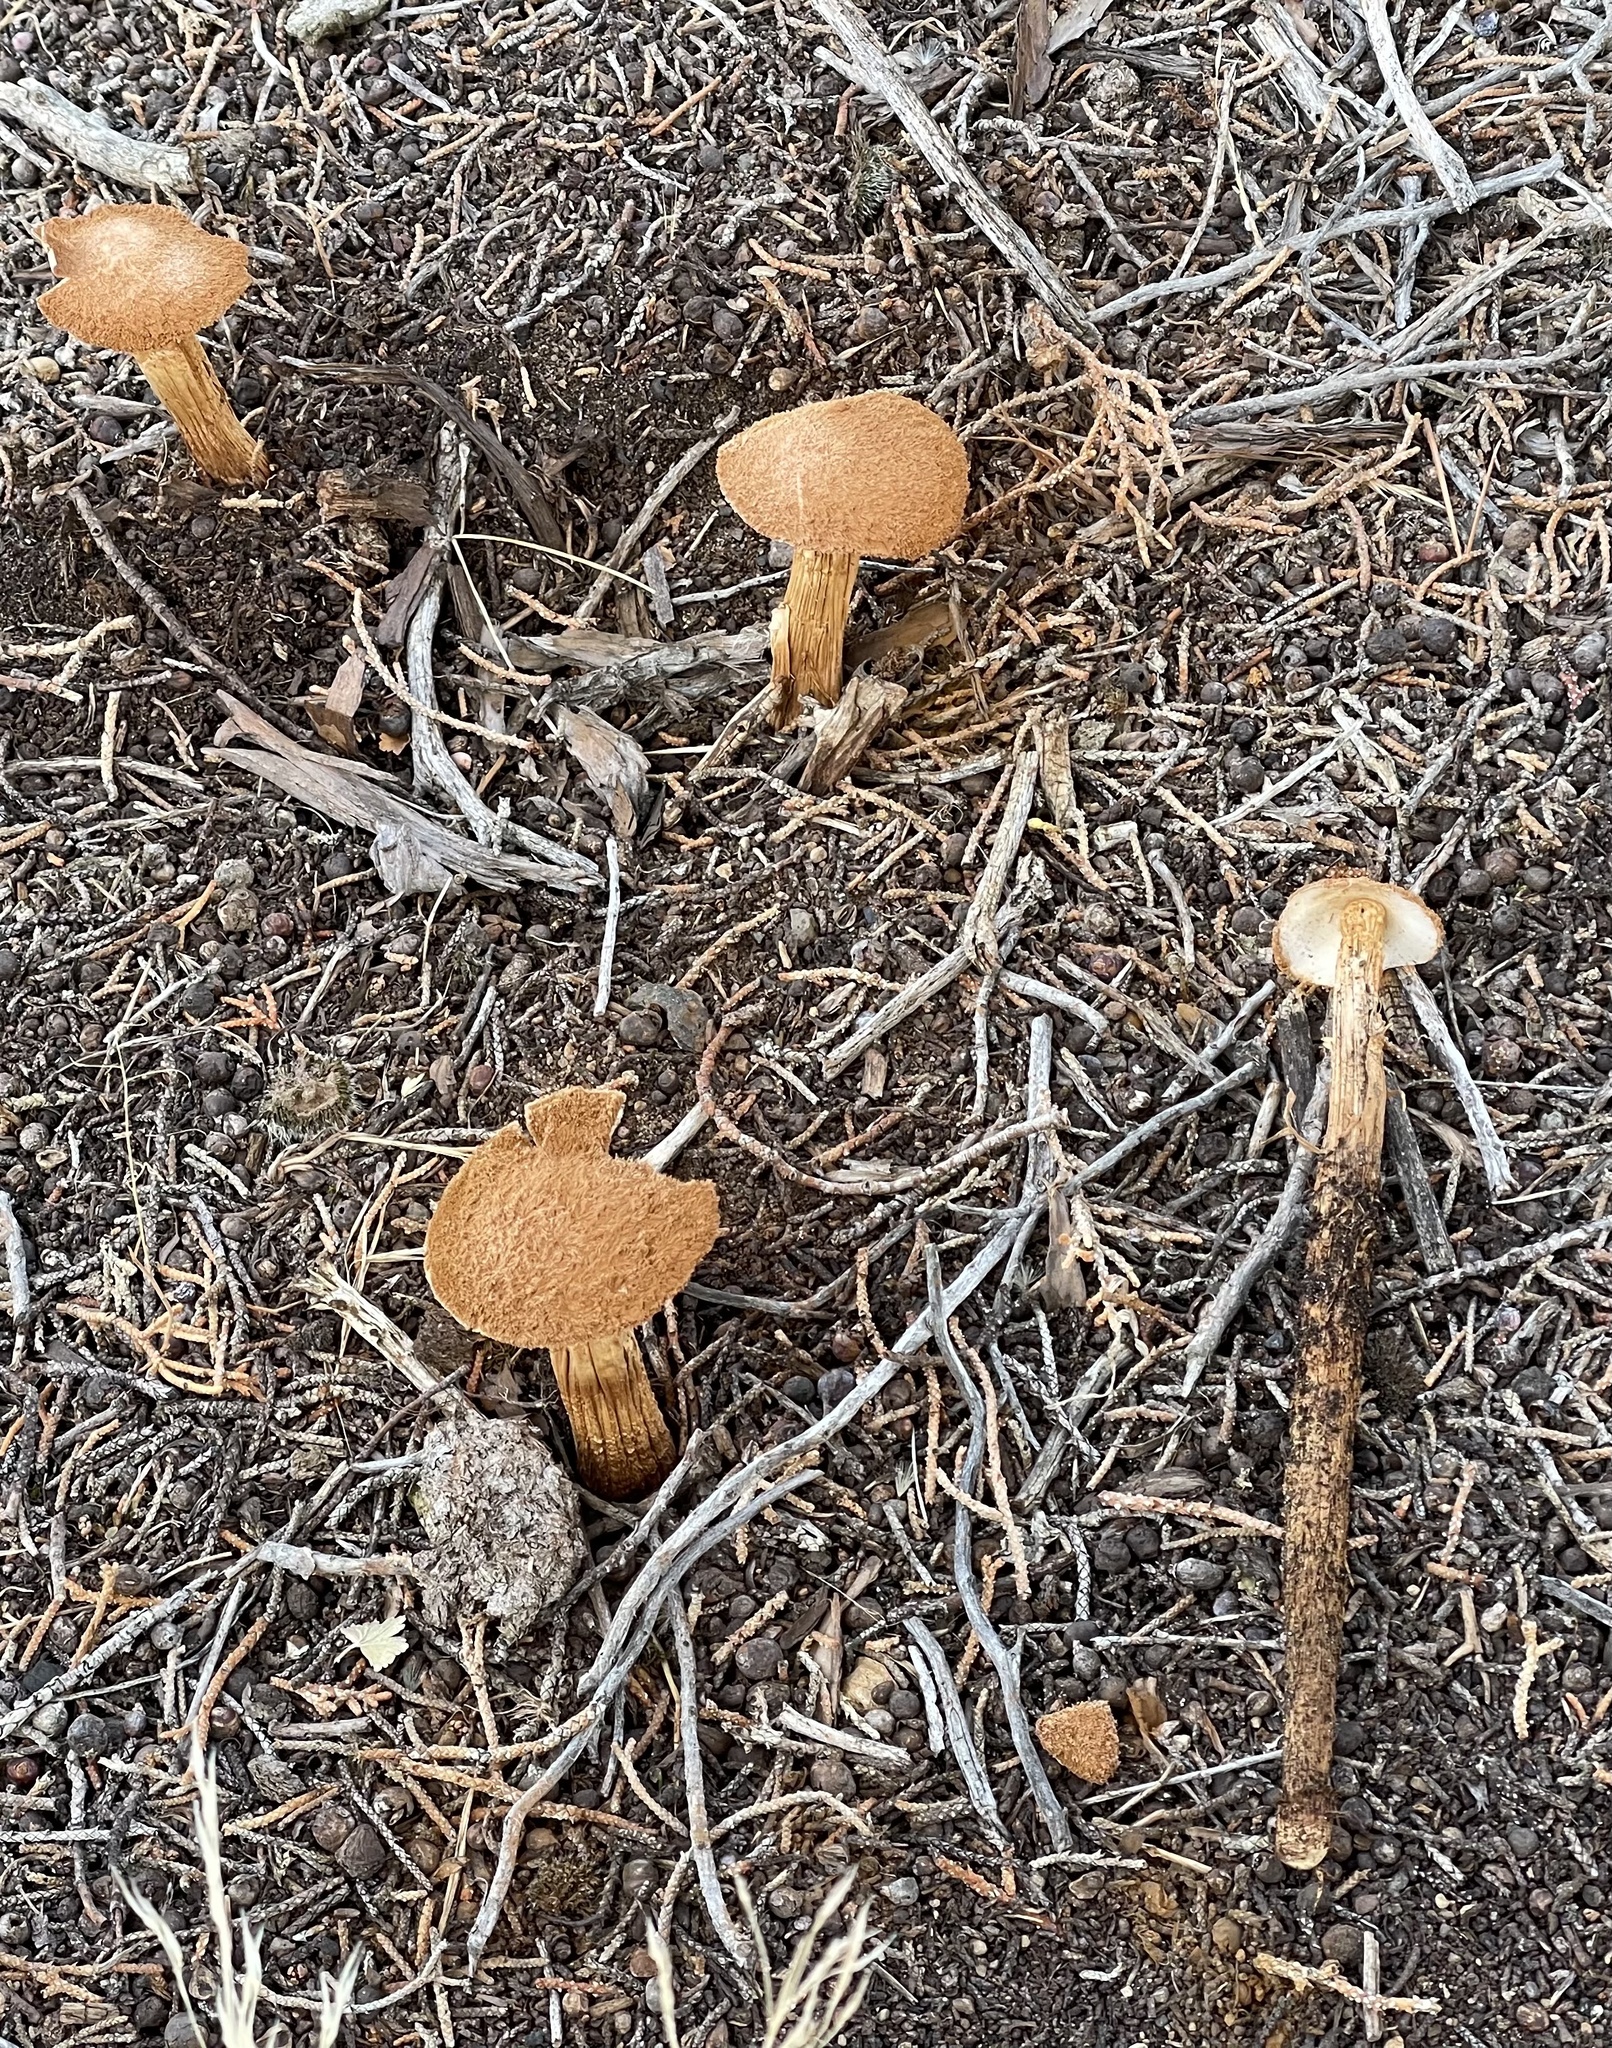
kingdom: Fungi
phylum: Basidiomycota
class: Agaricomycetes
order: Agaricales
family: Agaricaceae
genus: Battarrea
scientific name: Battarrea phalloides
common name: Sandy stiltball
